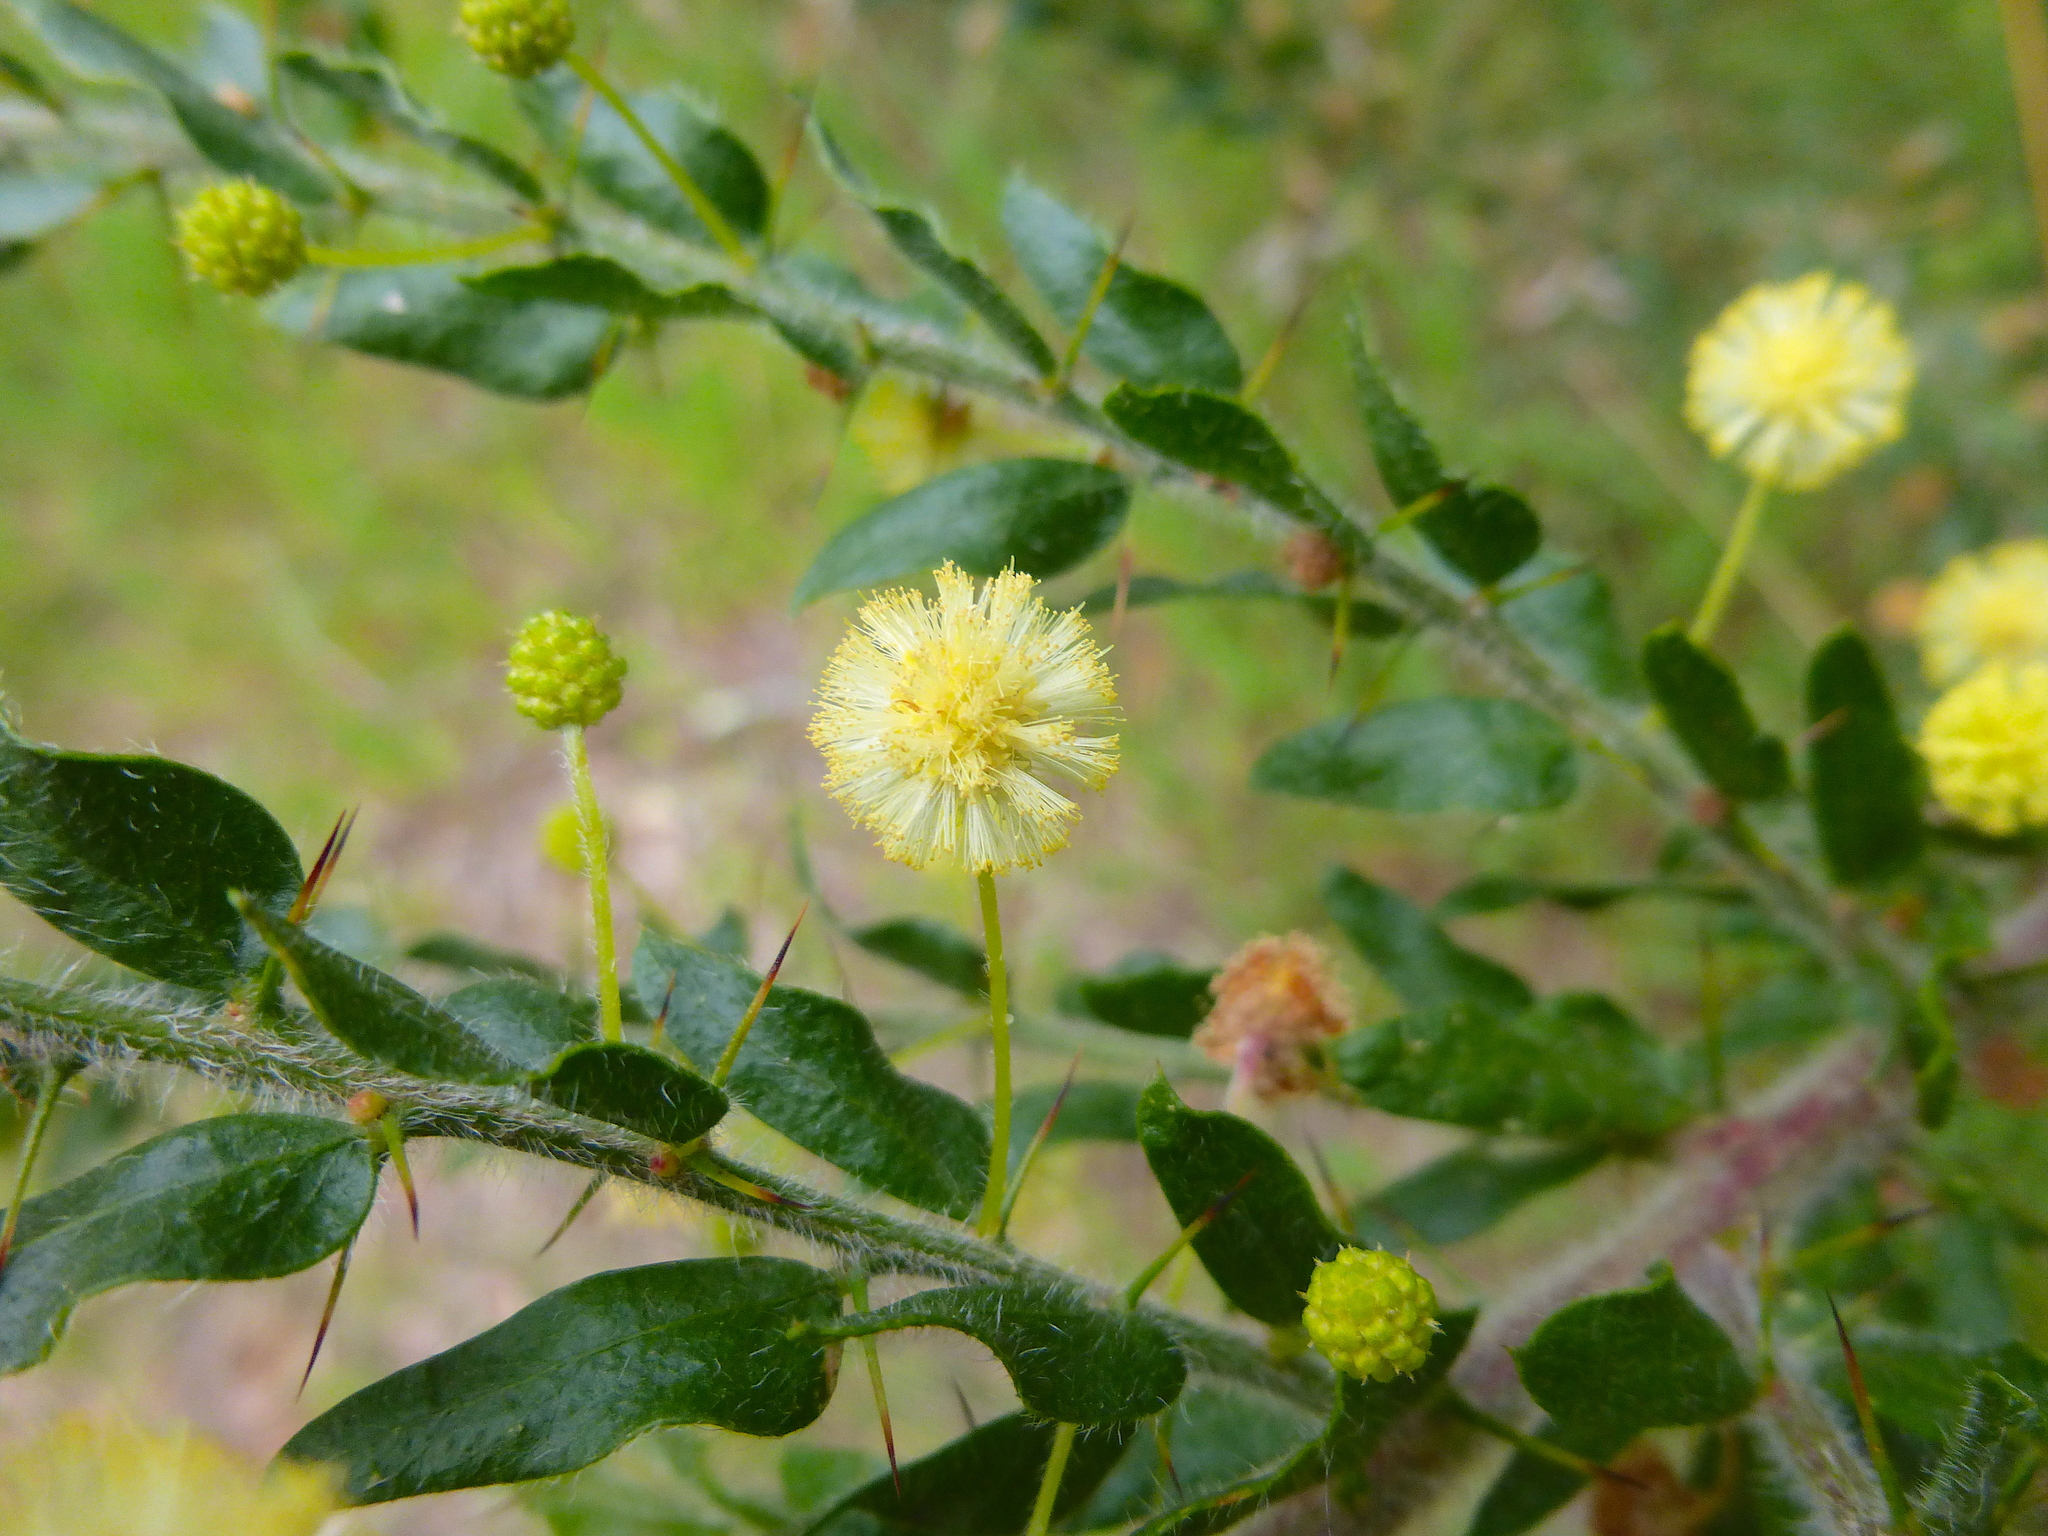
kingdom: Plantae
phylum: Tracheophyta
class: Magnoliopsida
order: Fabales
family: Fabaceae
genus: Acacia
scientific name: Acacia paradoxa
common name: Paradox acacia
